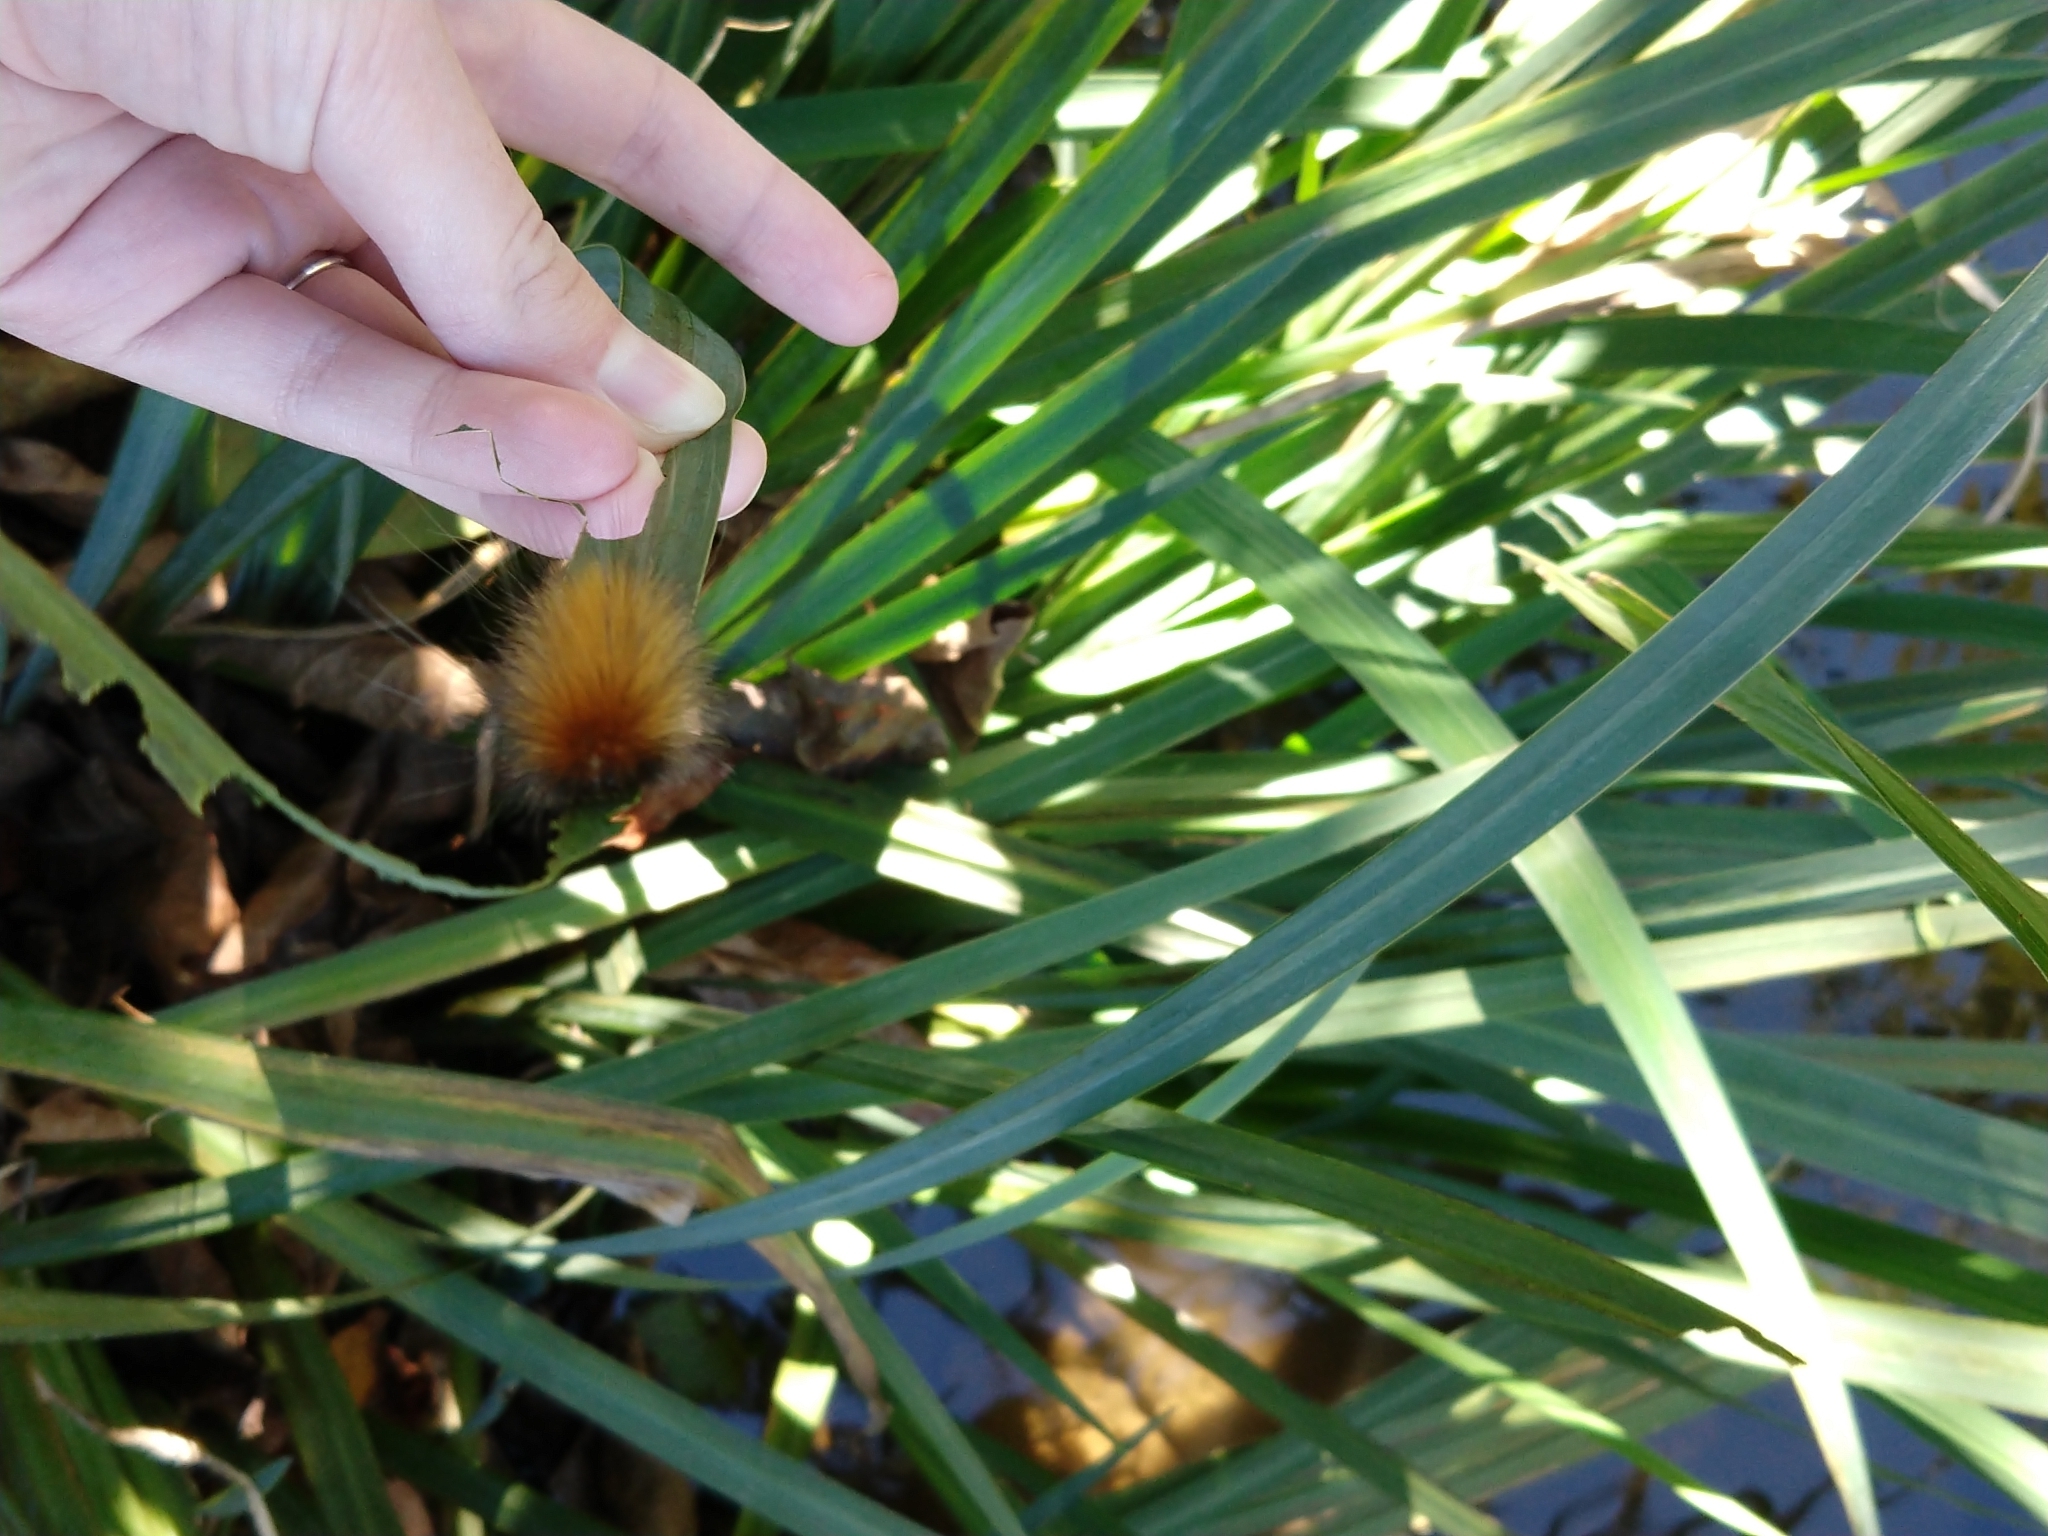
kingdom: Animalia
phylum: Arthropoda
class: Insecta
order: Lepidoptera
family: Erebidae
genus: Spilosoma
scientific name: Spilosoma virginica
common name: Virginia tiger moth
